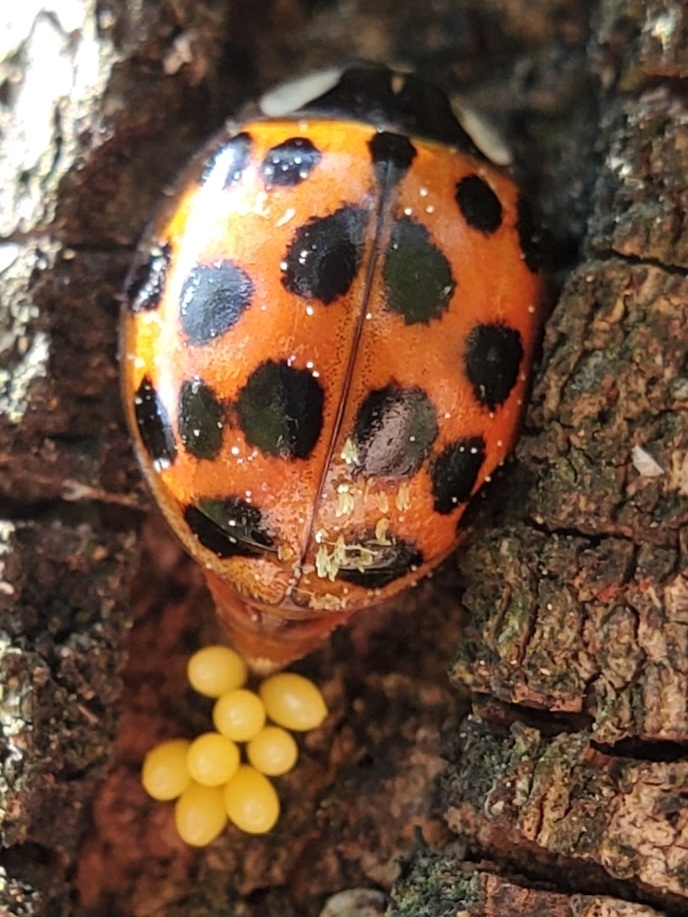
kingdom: Animalia
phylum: Arthropoda
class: Insecta
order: Coleoptera
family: Coccinellidae
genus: Harmonia
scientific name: Harmonia axyridis
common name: Harlequin ladybird
